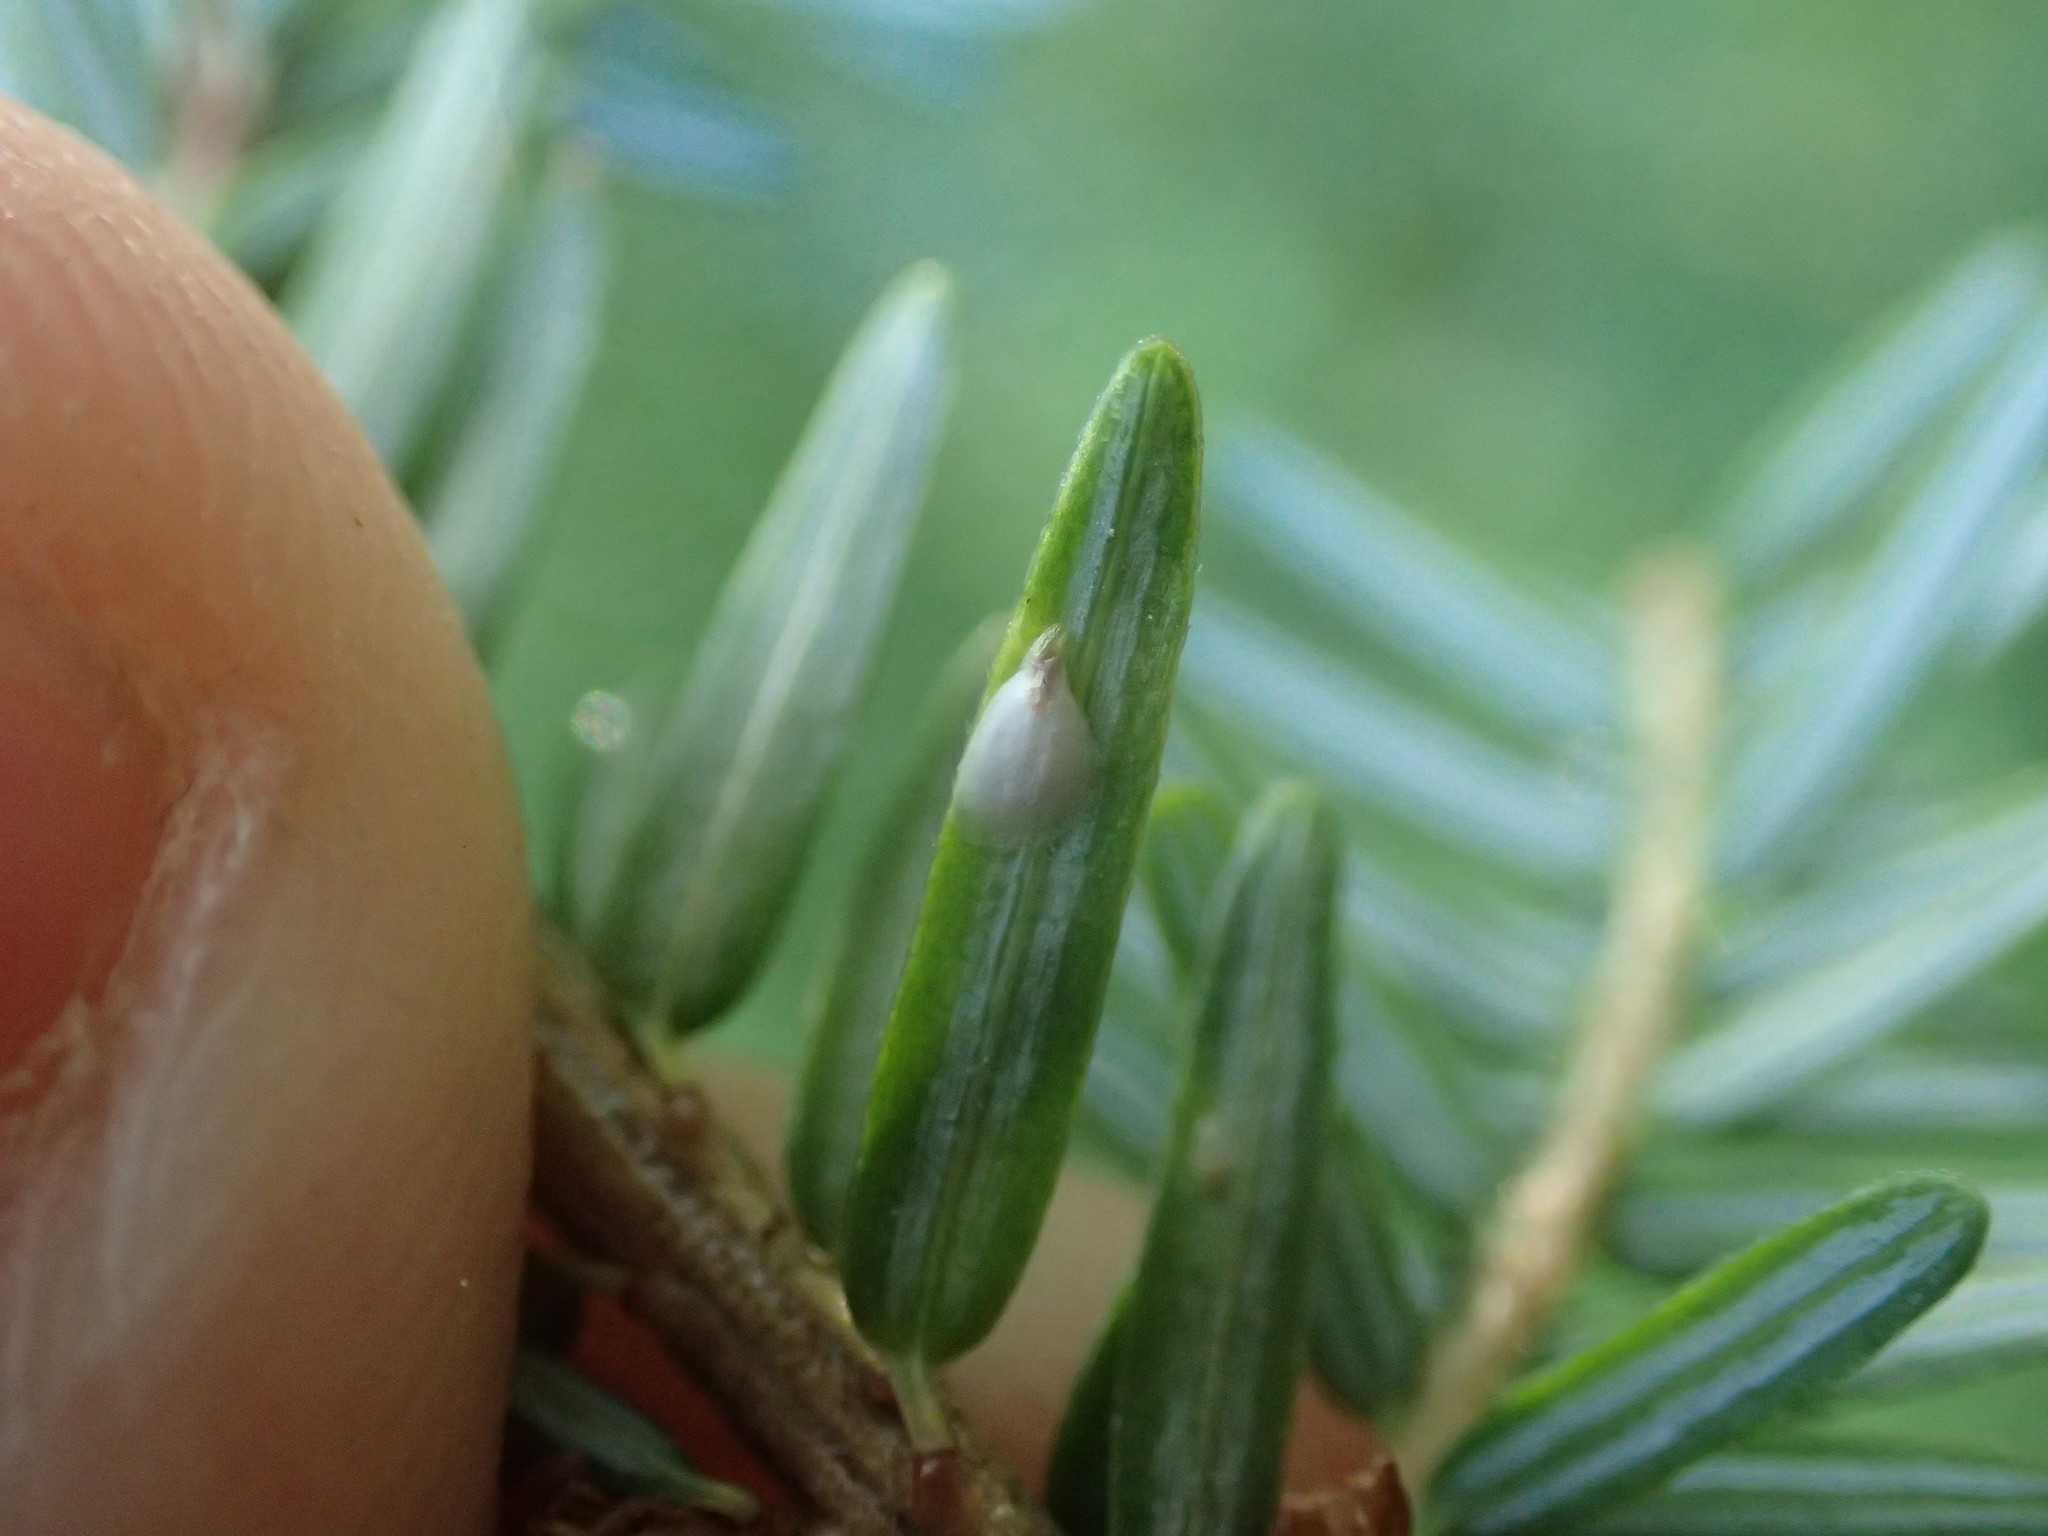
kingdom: Plantae
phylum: Tracheophyta
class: Pinopsida
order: Pinales
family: Pinaceae
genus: Tsuga
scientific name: Tsuga canadensis
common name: Eastern hemlock
